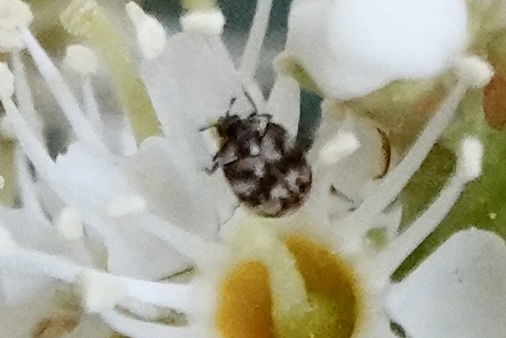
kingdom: Animalia
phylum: Arthropoda
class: Insecta
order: Coleoptera
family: Dermestidae
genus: Anthrenus
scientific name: Anthrenus verbasci
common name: Varied carpet beetle
